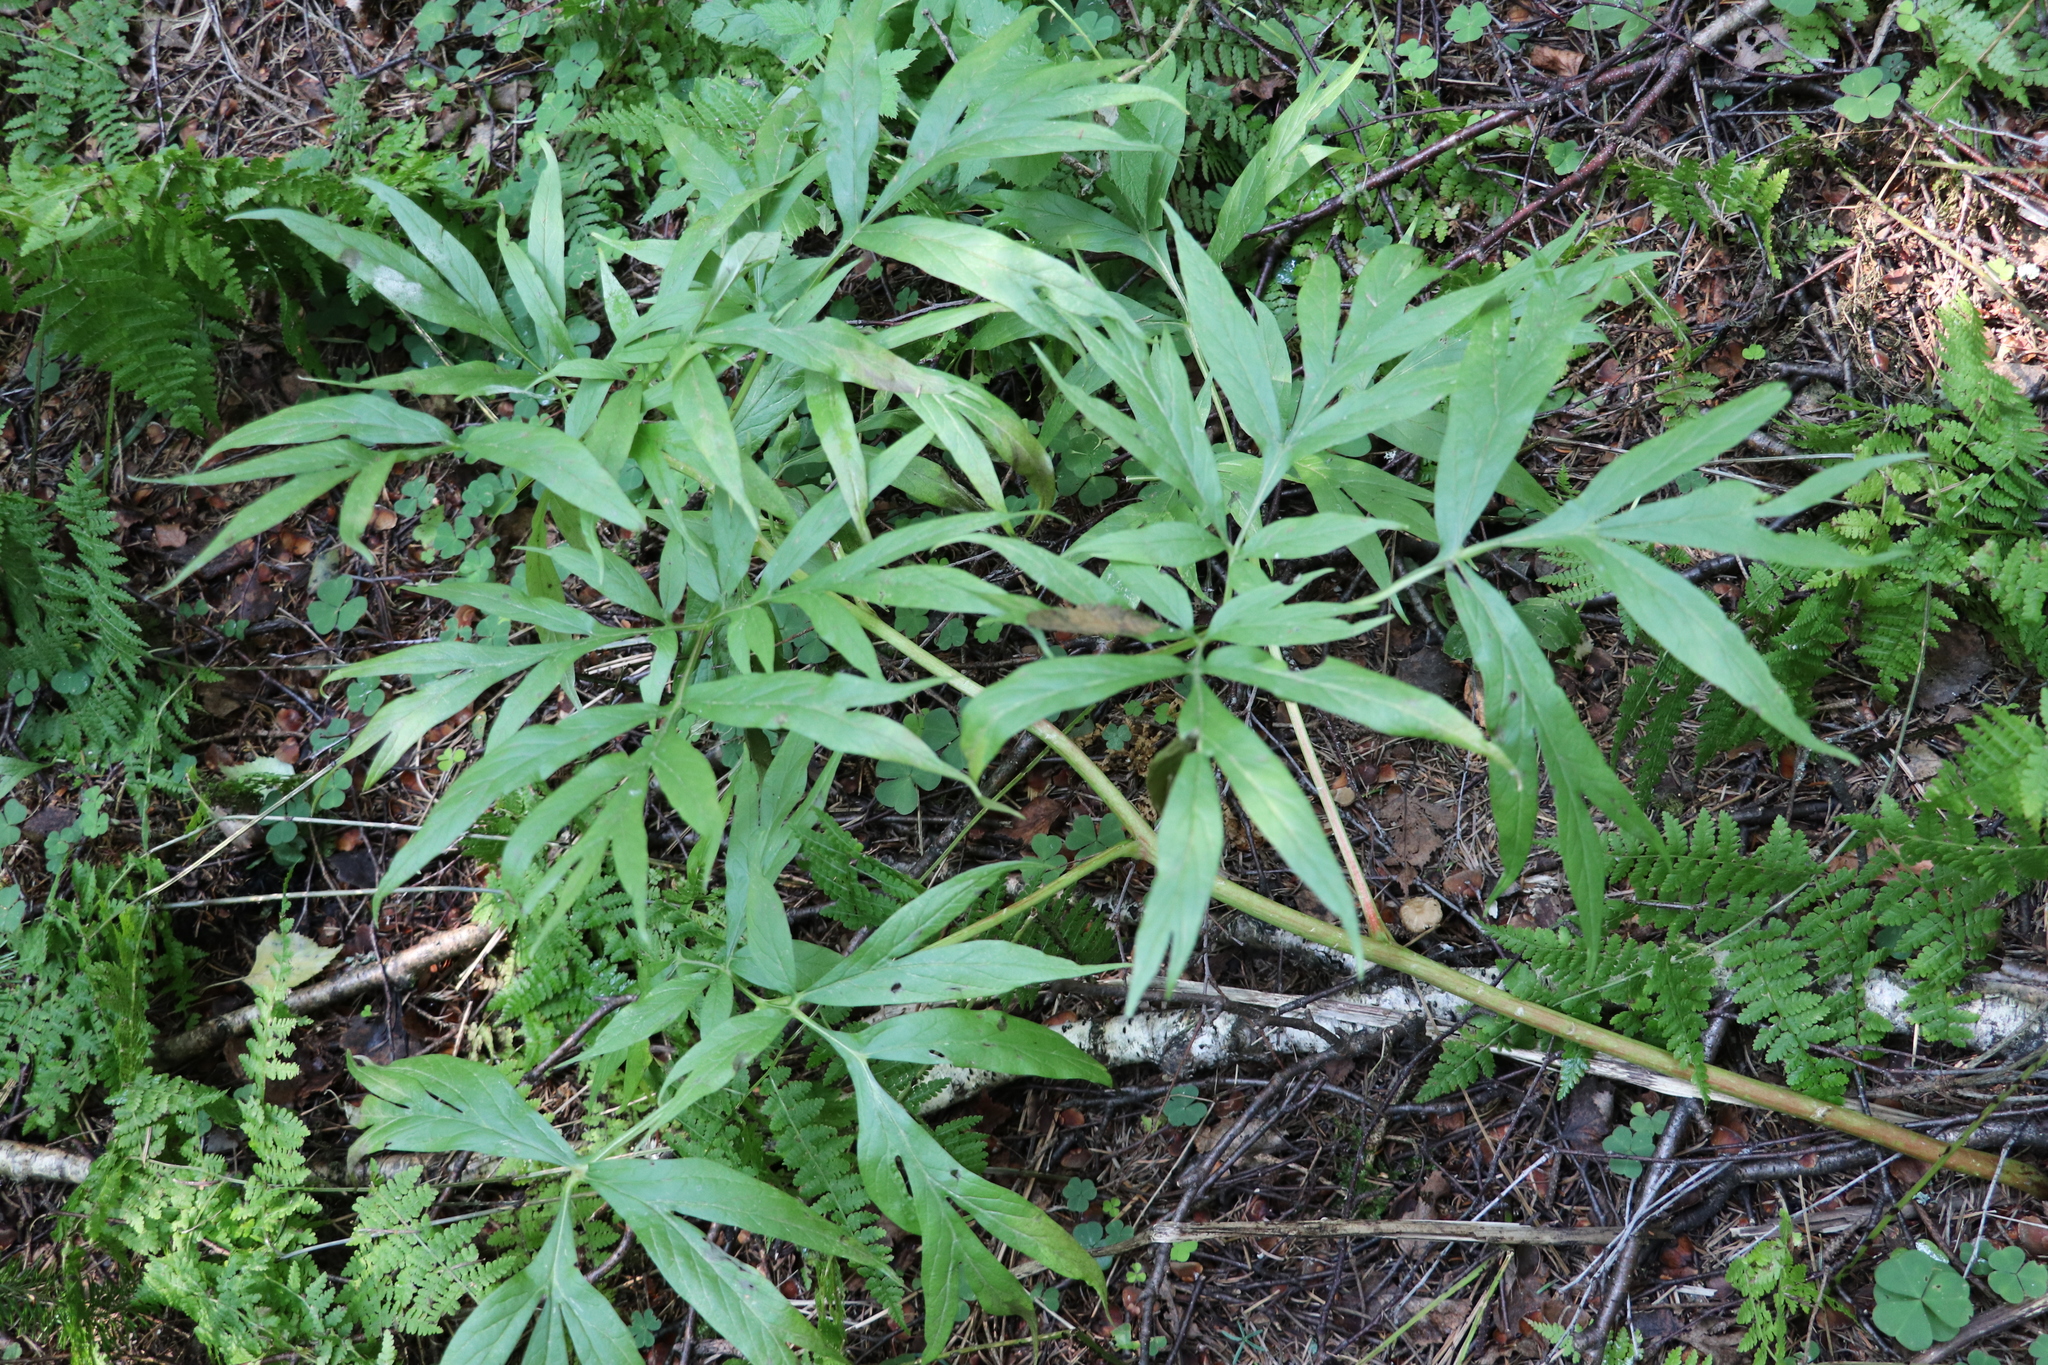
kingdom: Plantae
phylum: Tracheophyta
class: Magnoliopsida
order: Saxifragales
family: Paeoniaceae
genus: Paeonia
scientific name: Paeonia anomala
